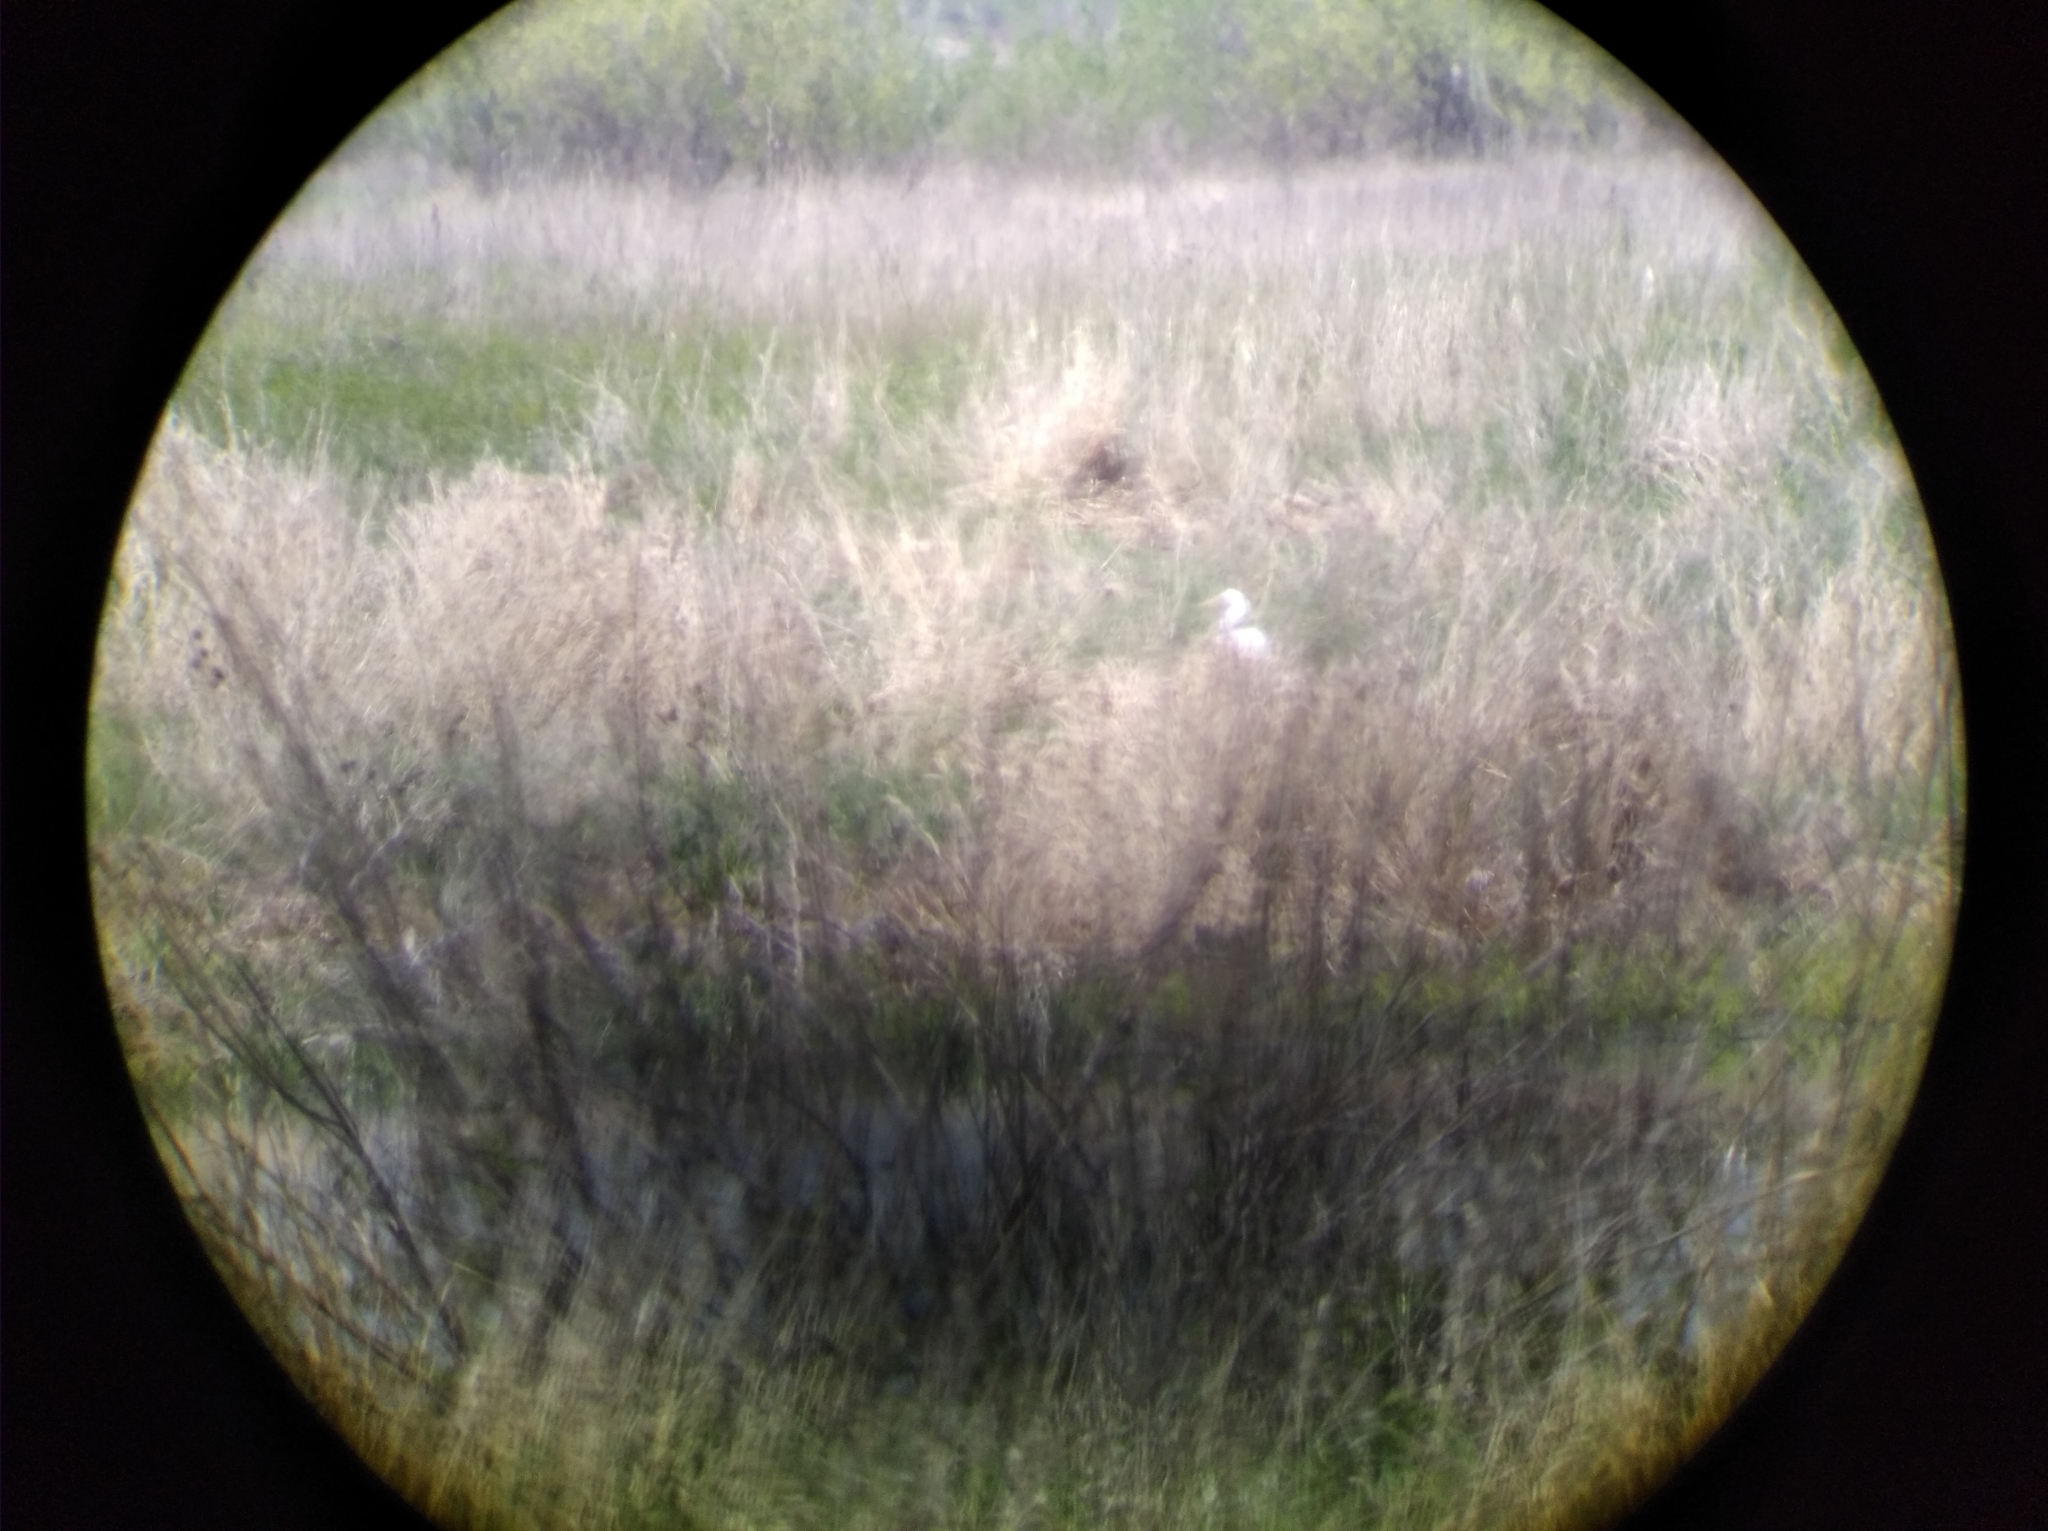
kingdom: Animalia
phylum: Chordata
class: Aves
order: Pelecaniformes
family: Ardeidae
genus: Ardea
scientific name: Ardea alba
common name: Great egret
